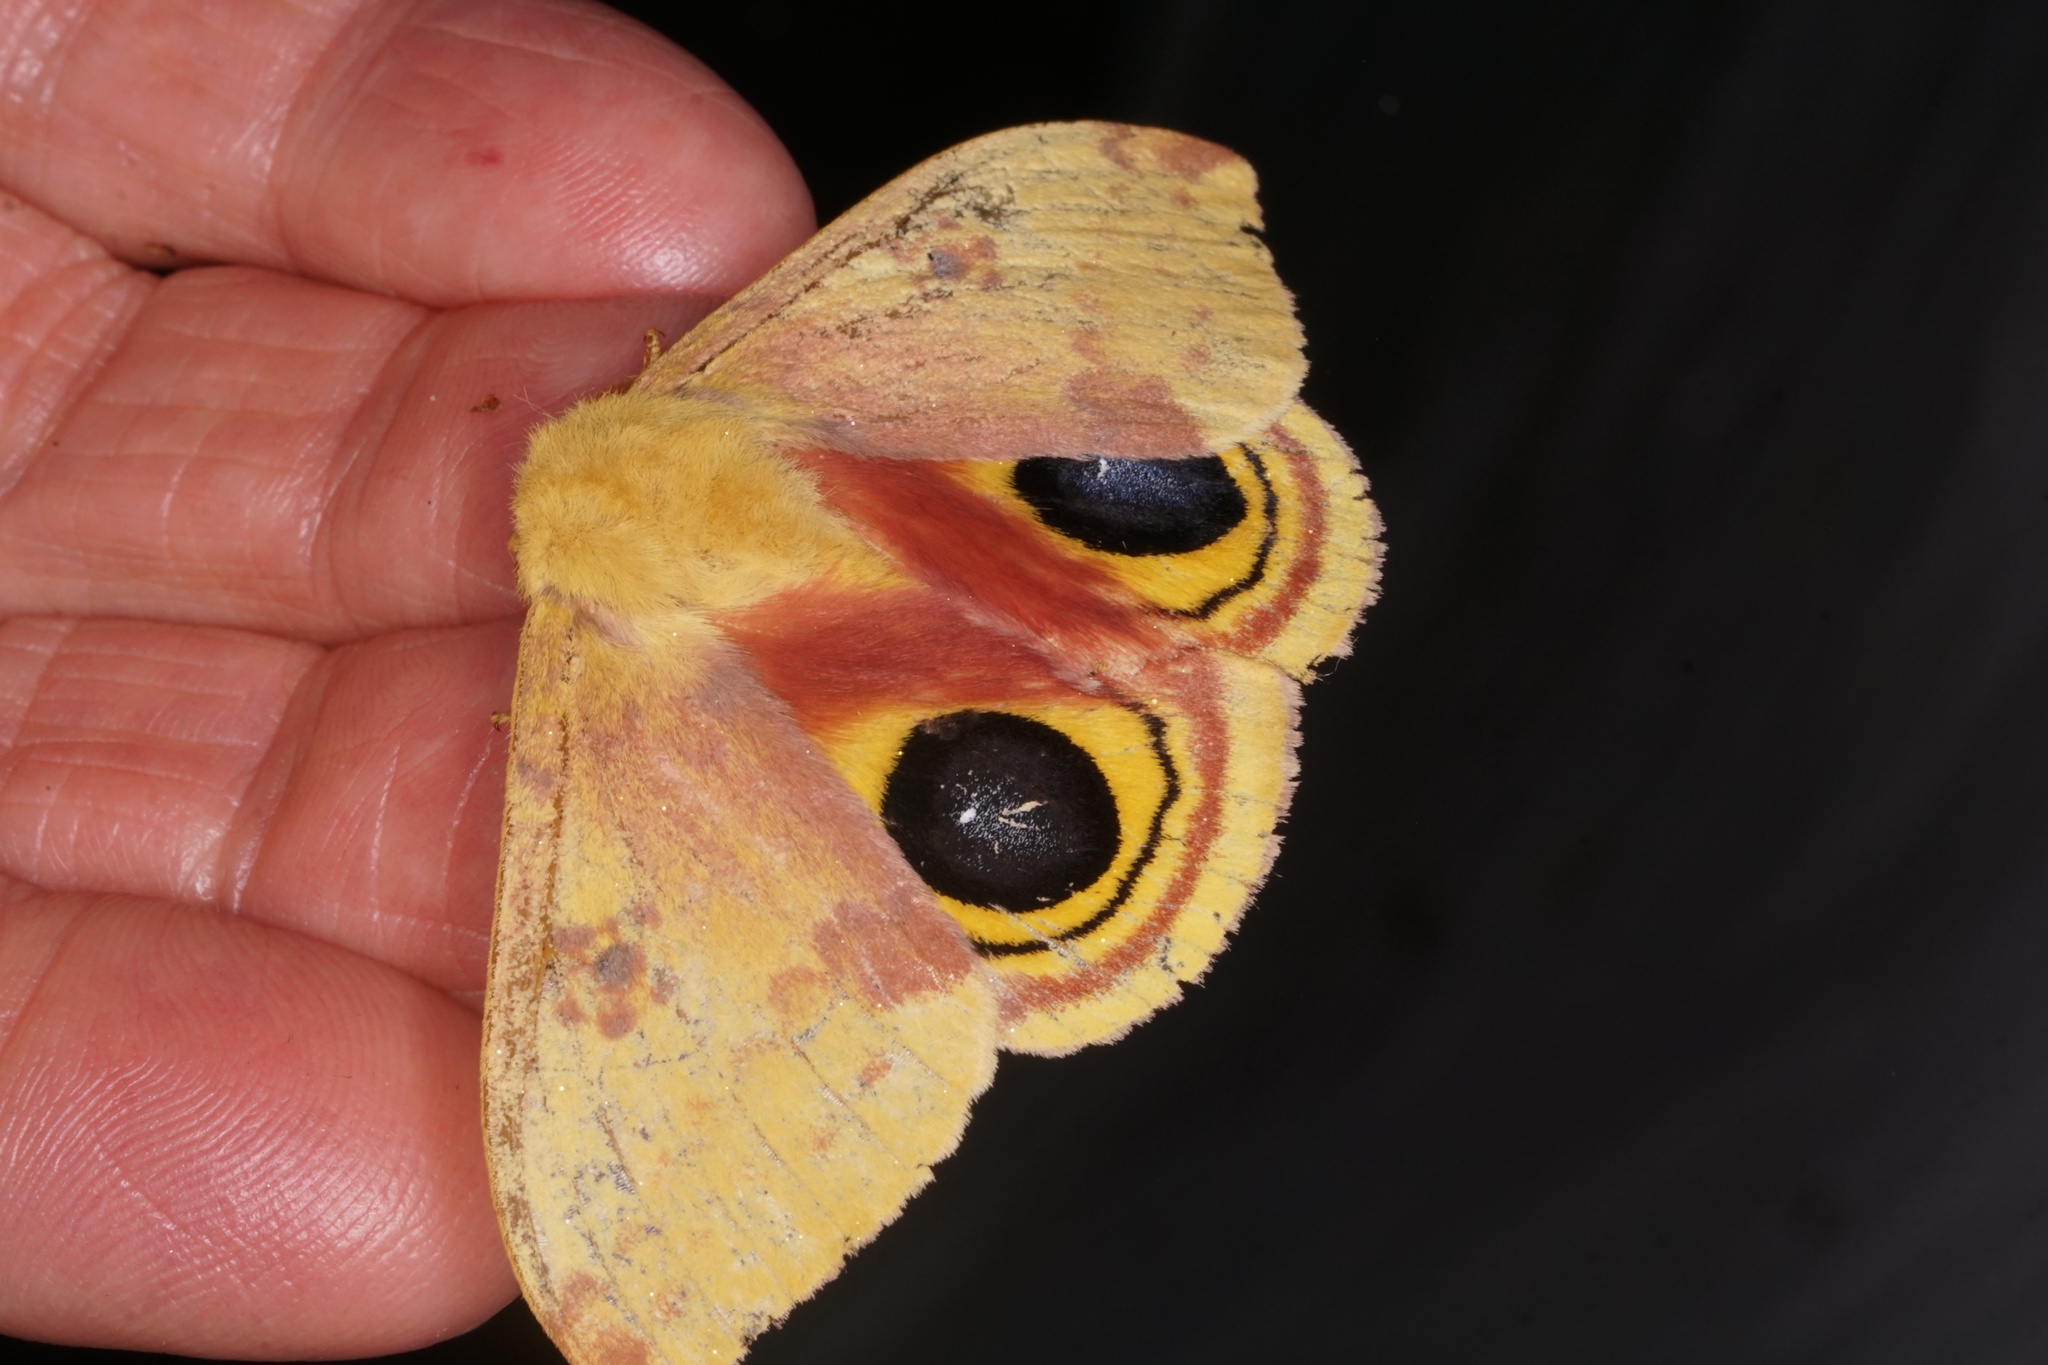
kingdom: Animalia
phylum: Arthropoda
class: Insecta
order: Lepidoptera
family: Saturniidae
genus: Automeris
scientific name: Automeris io
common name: Io moth
